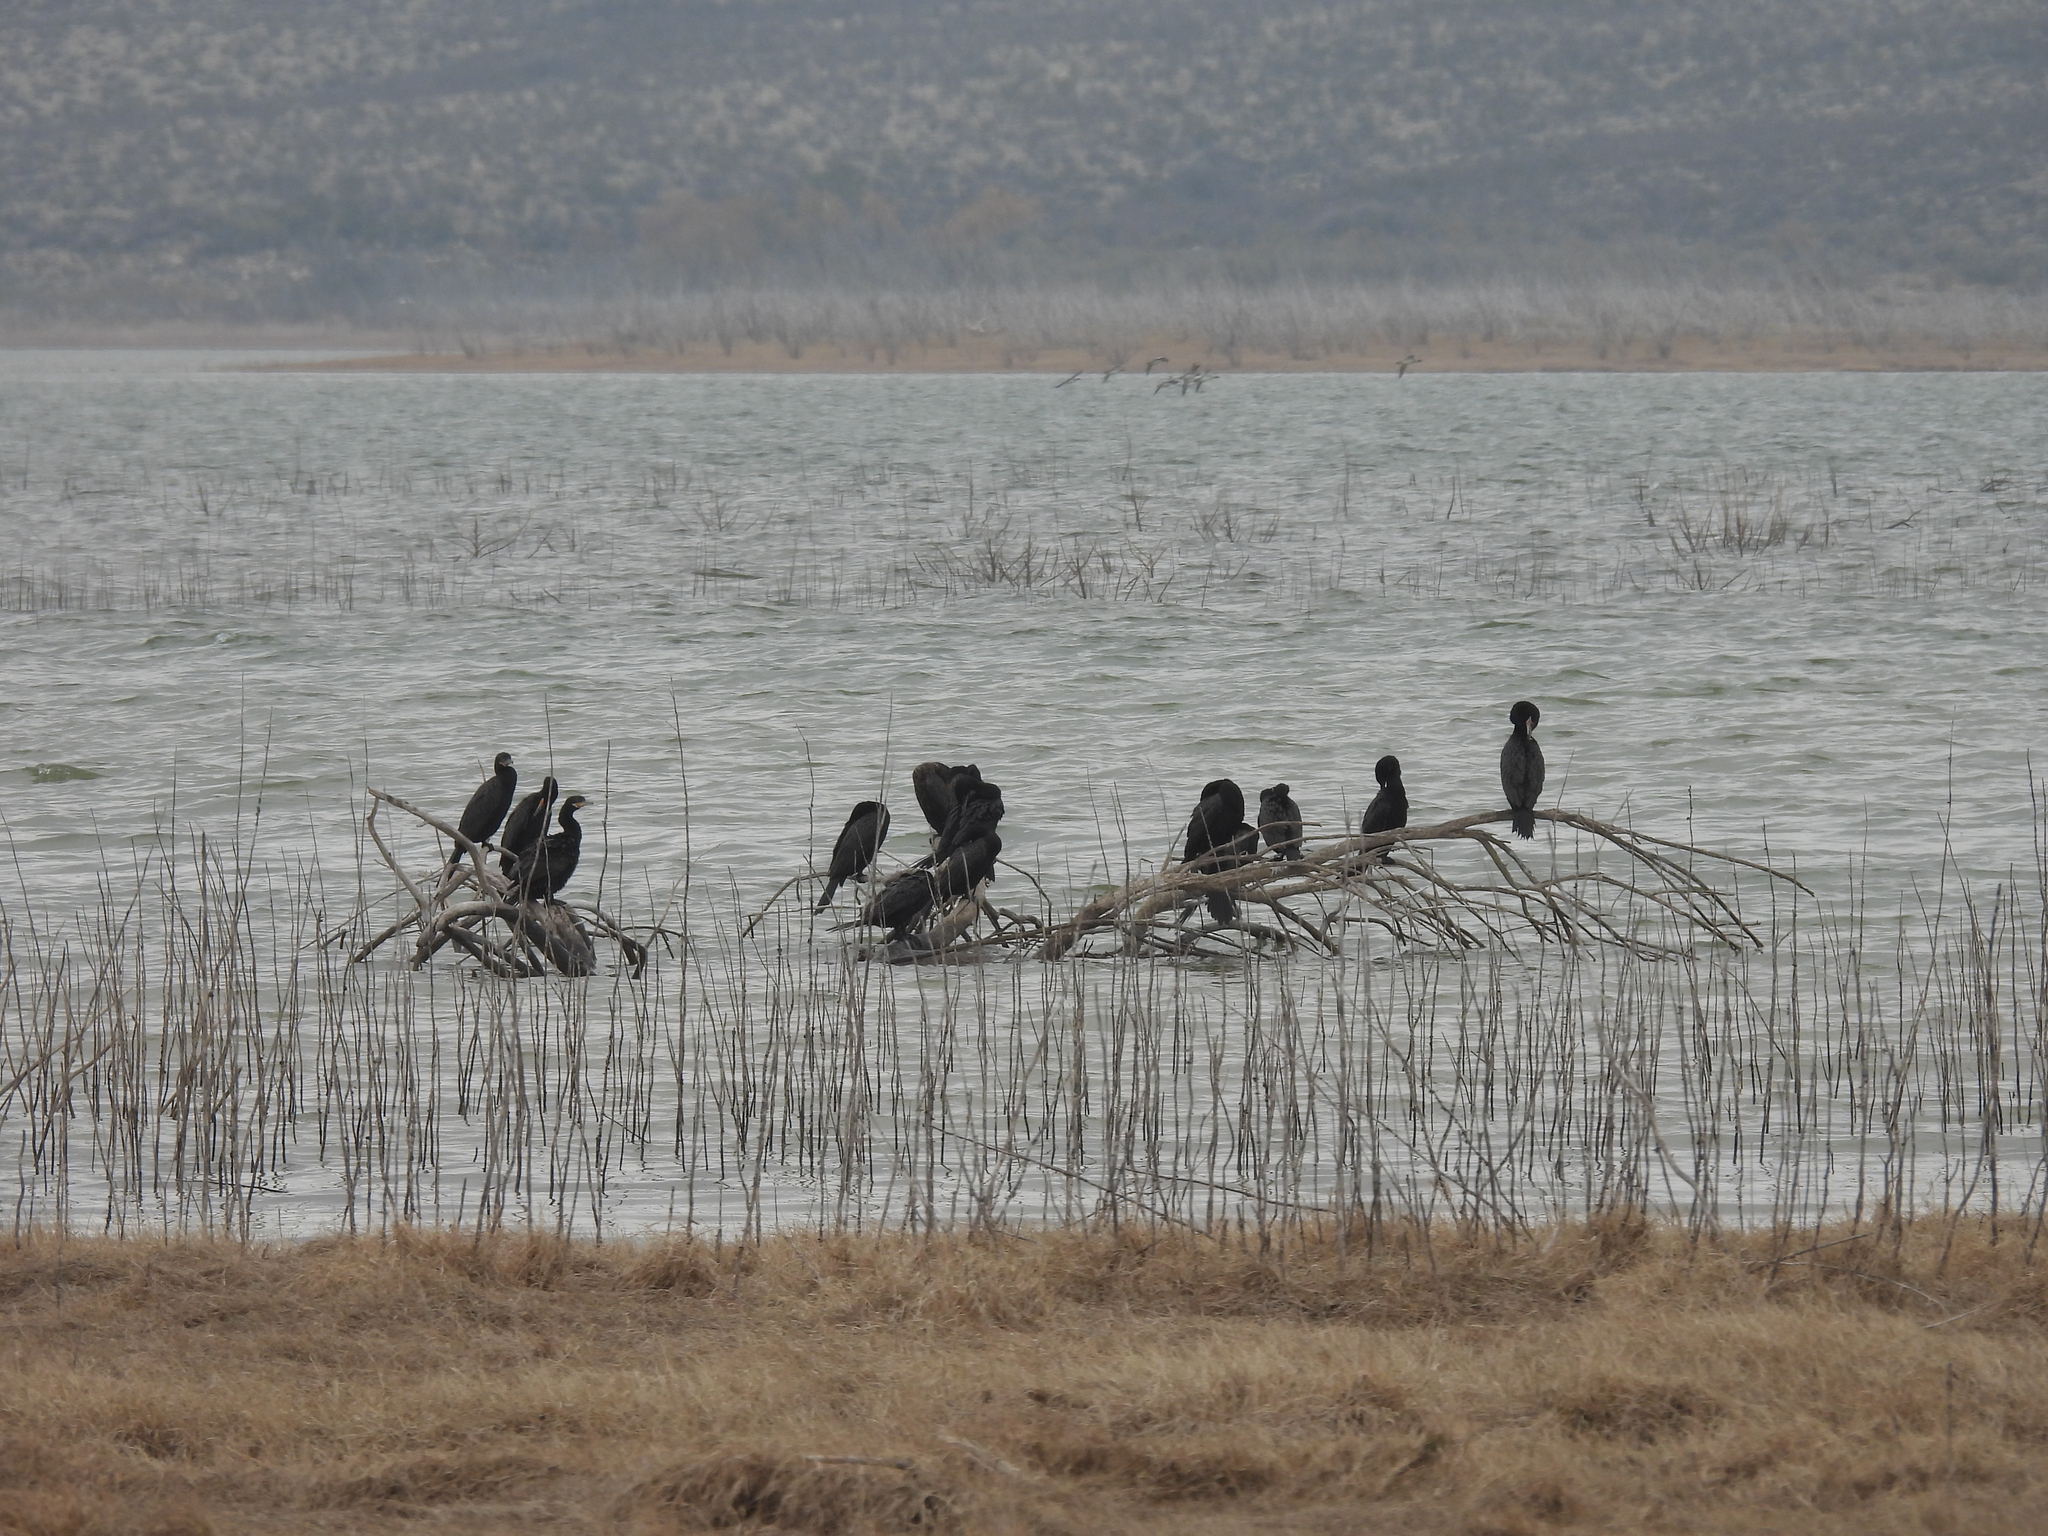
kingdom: Animalia
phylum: Chordata
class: Aves
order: Suliformes
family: Phalacrocoracidae
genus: Phalacrocorax
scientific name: Phalacrocorax brasilianus
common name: Neotropic cormorant
